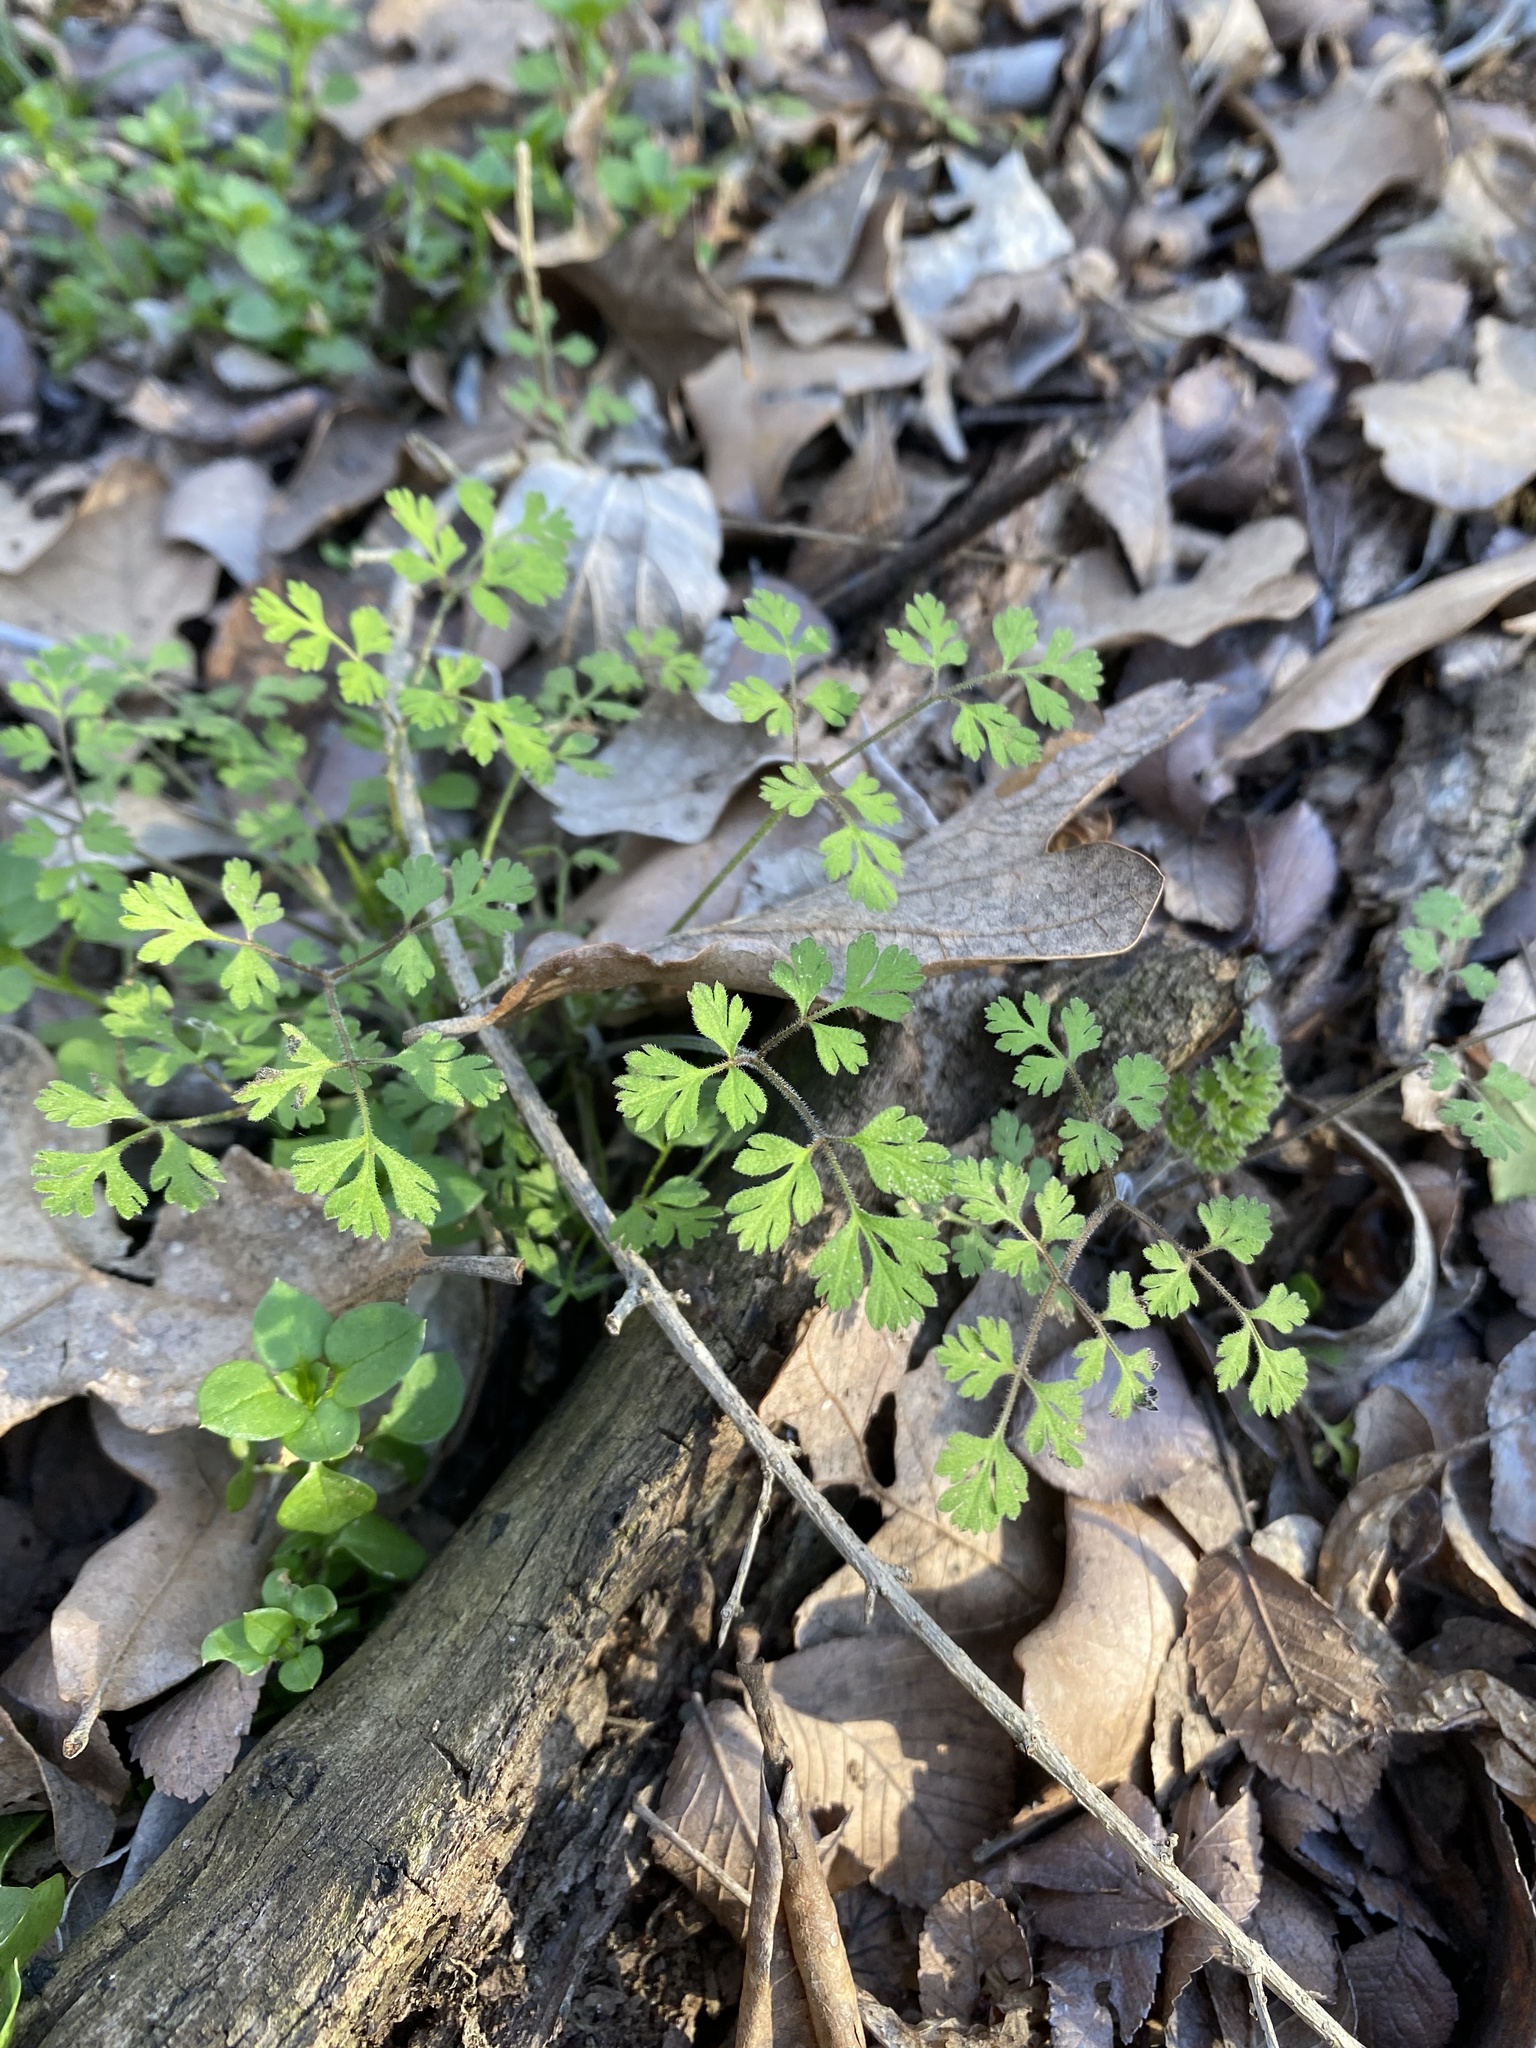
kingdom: Plantae
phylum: Tracheophyta
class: Magnoliopsida
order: Apiales
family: Apiaceae
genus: Chaerophyllum
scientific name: Chaerophyllum tainturieri
